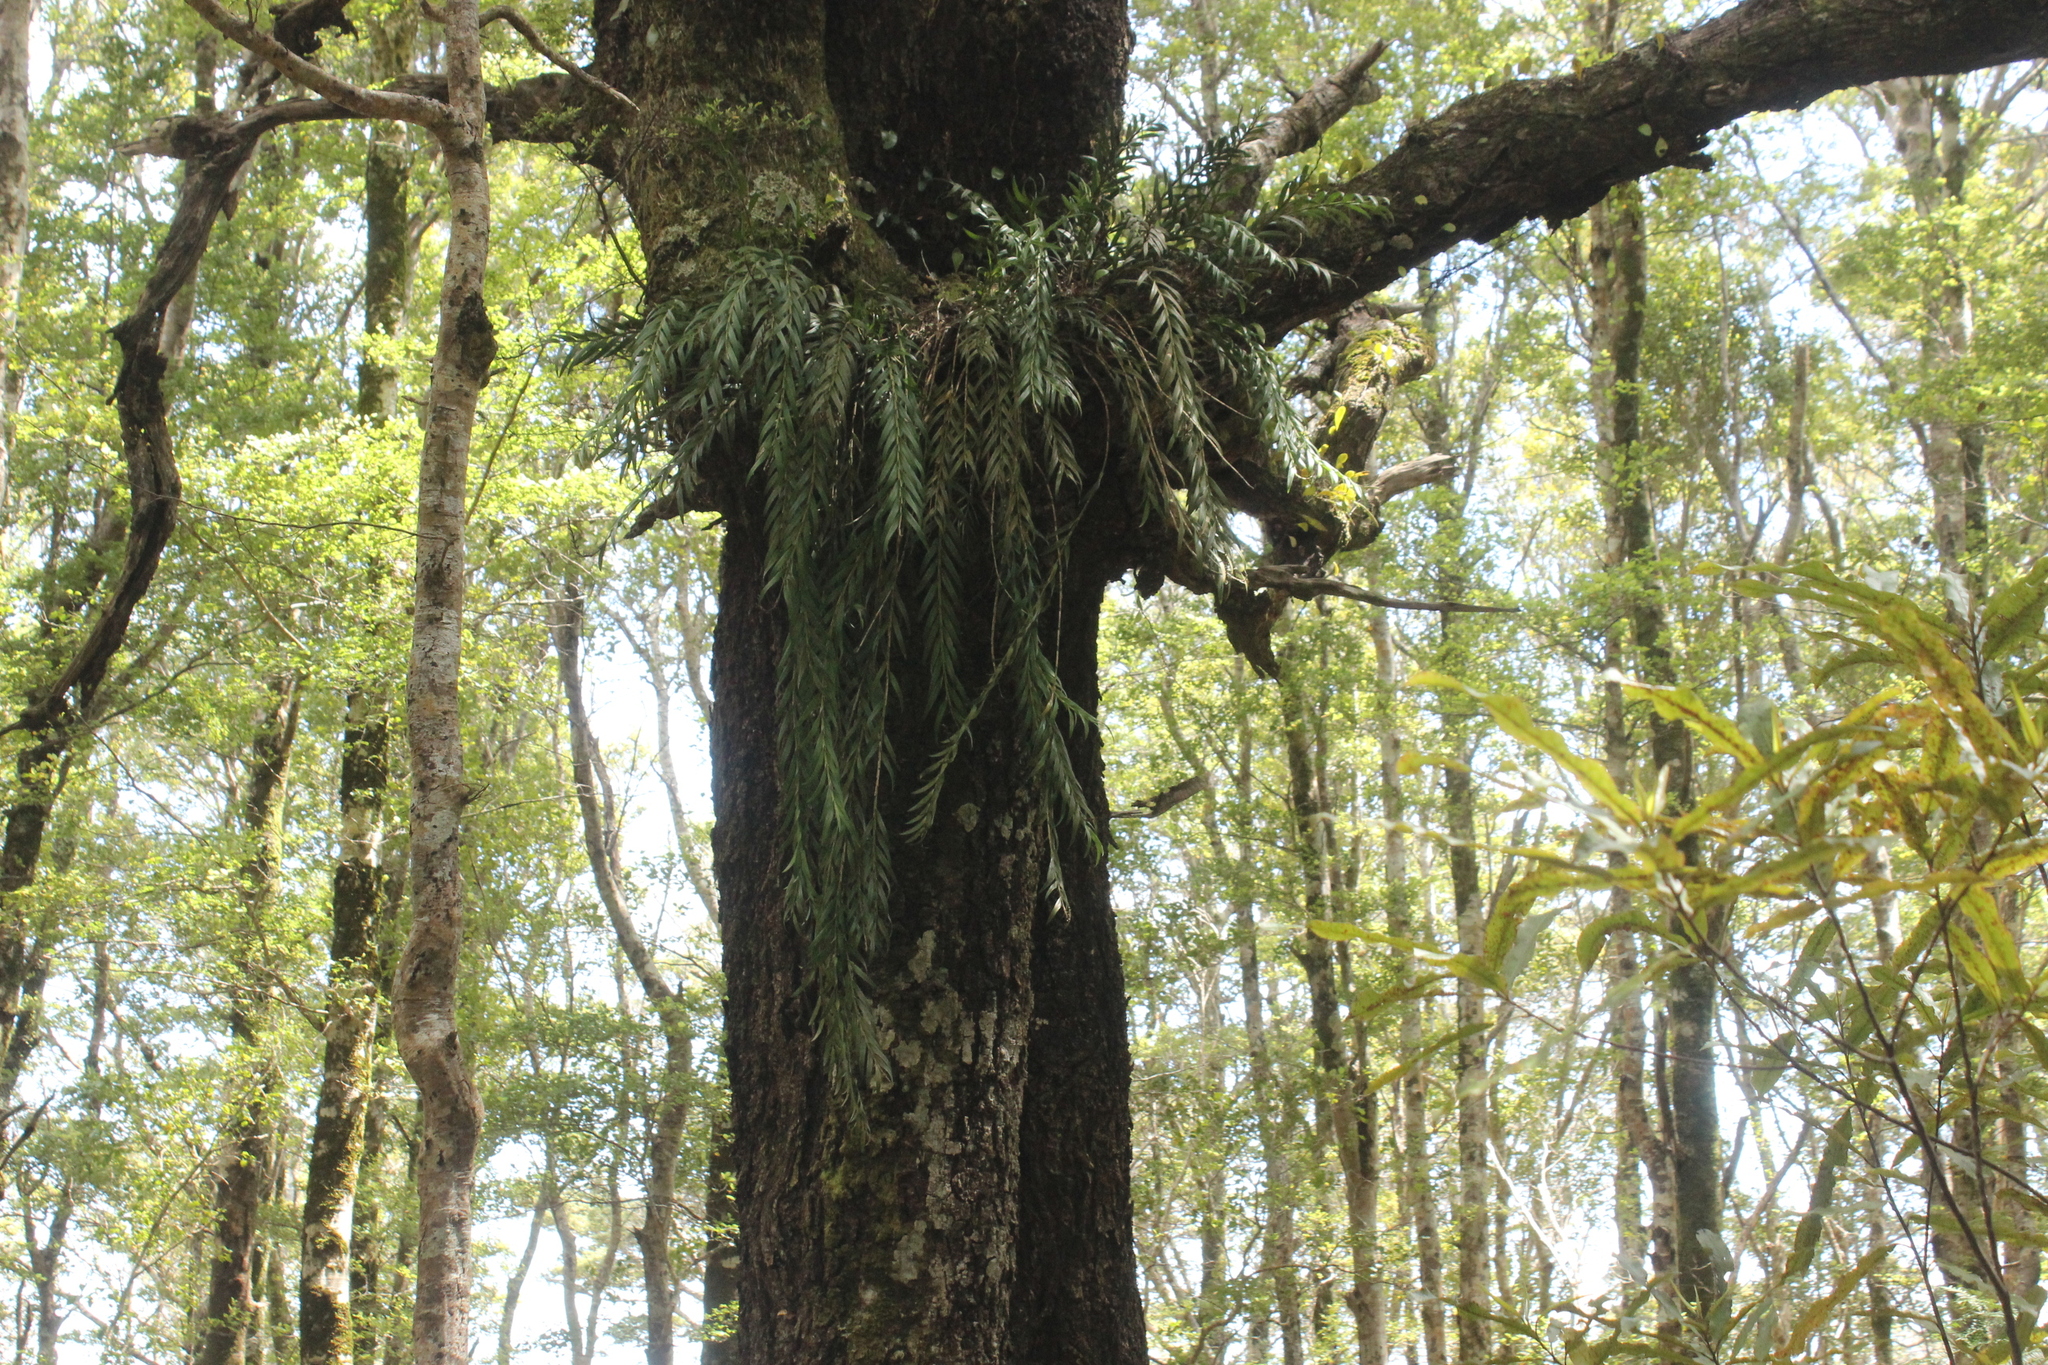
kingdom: Plantae
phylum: Tracheophyta
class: Liliopsida
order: Asparagales
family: Orchidaceae
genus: Earina
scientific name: Earina autumnalis
